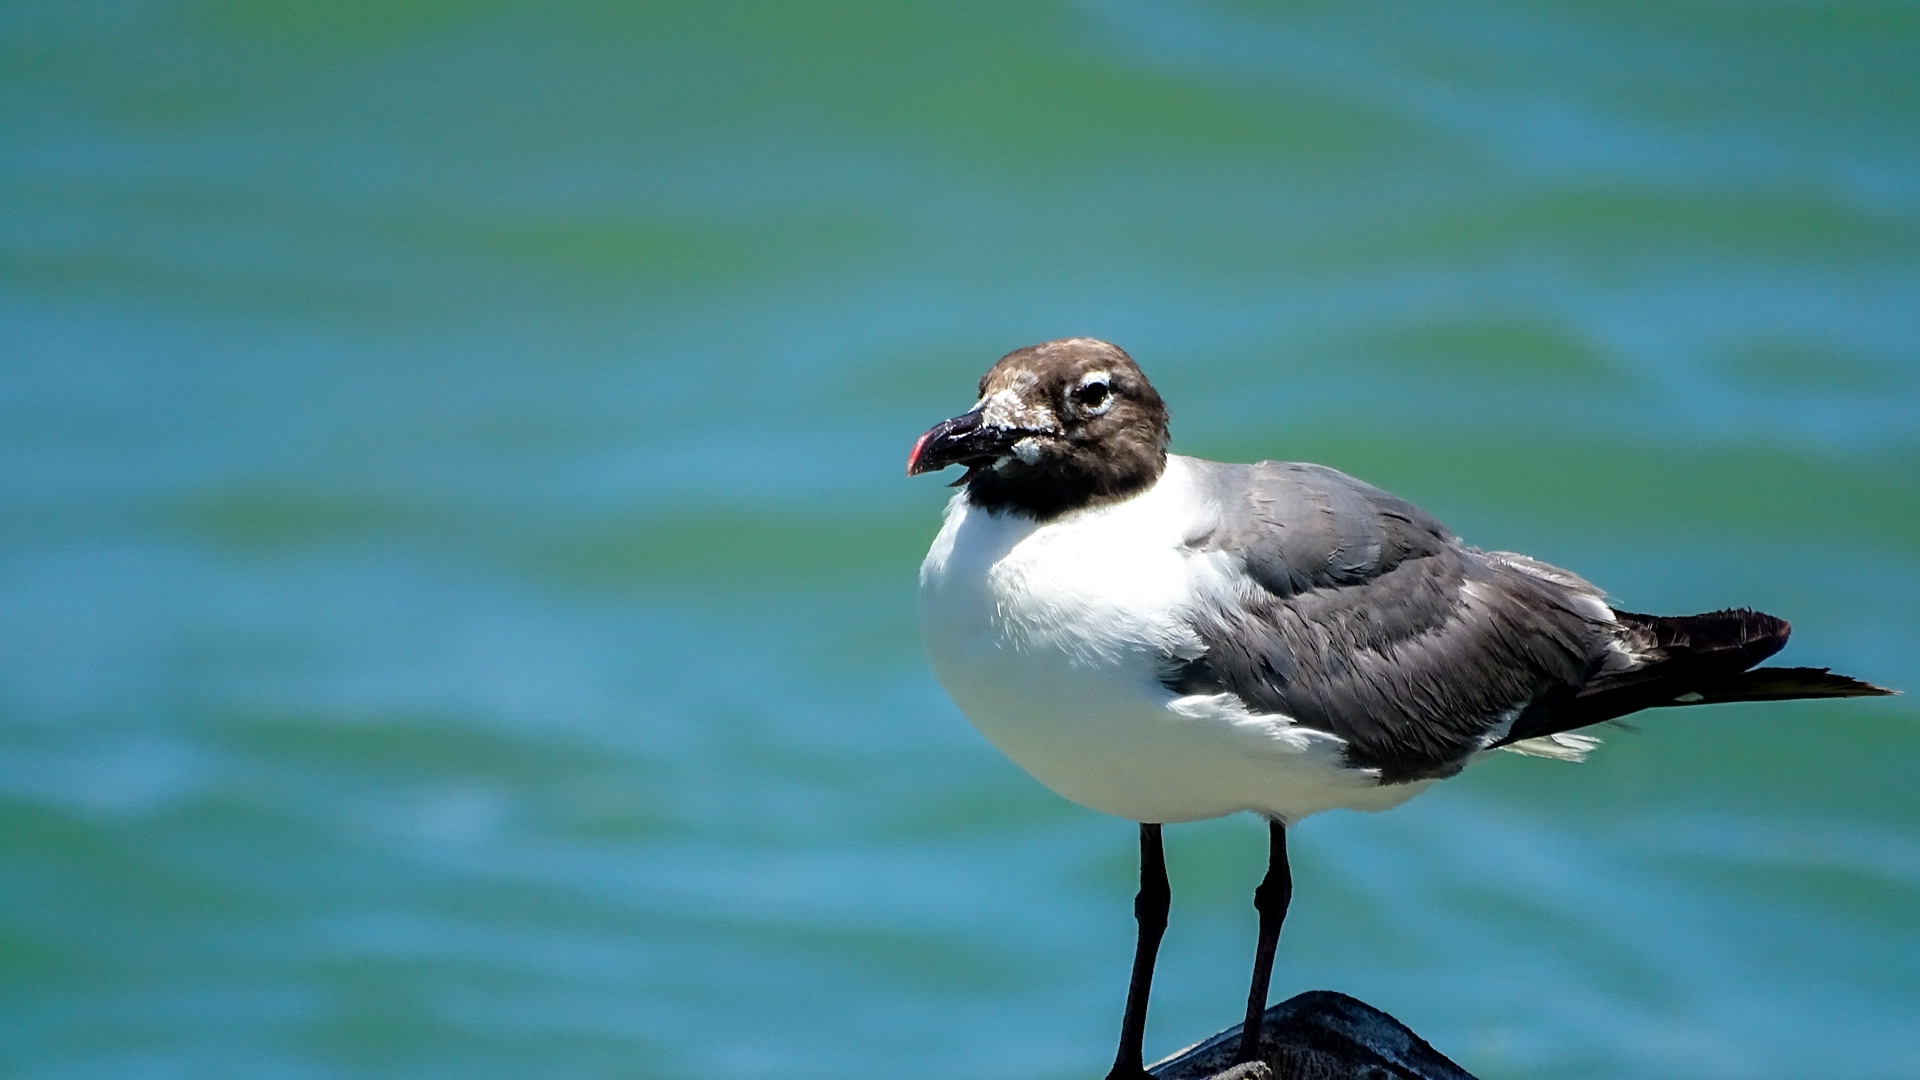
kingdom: Animalia
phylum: Chordata
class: Aves
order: Charadriiformes
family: Laridae
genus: Leucophaeus
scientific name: Leucophaeus atricilla
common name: Laughing gull
